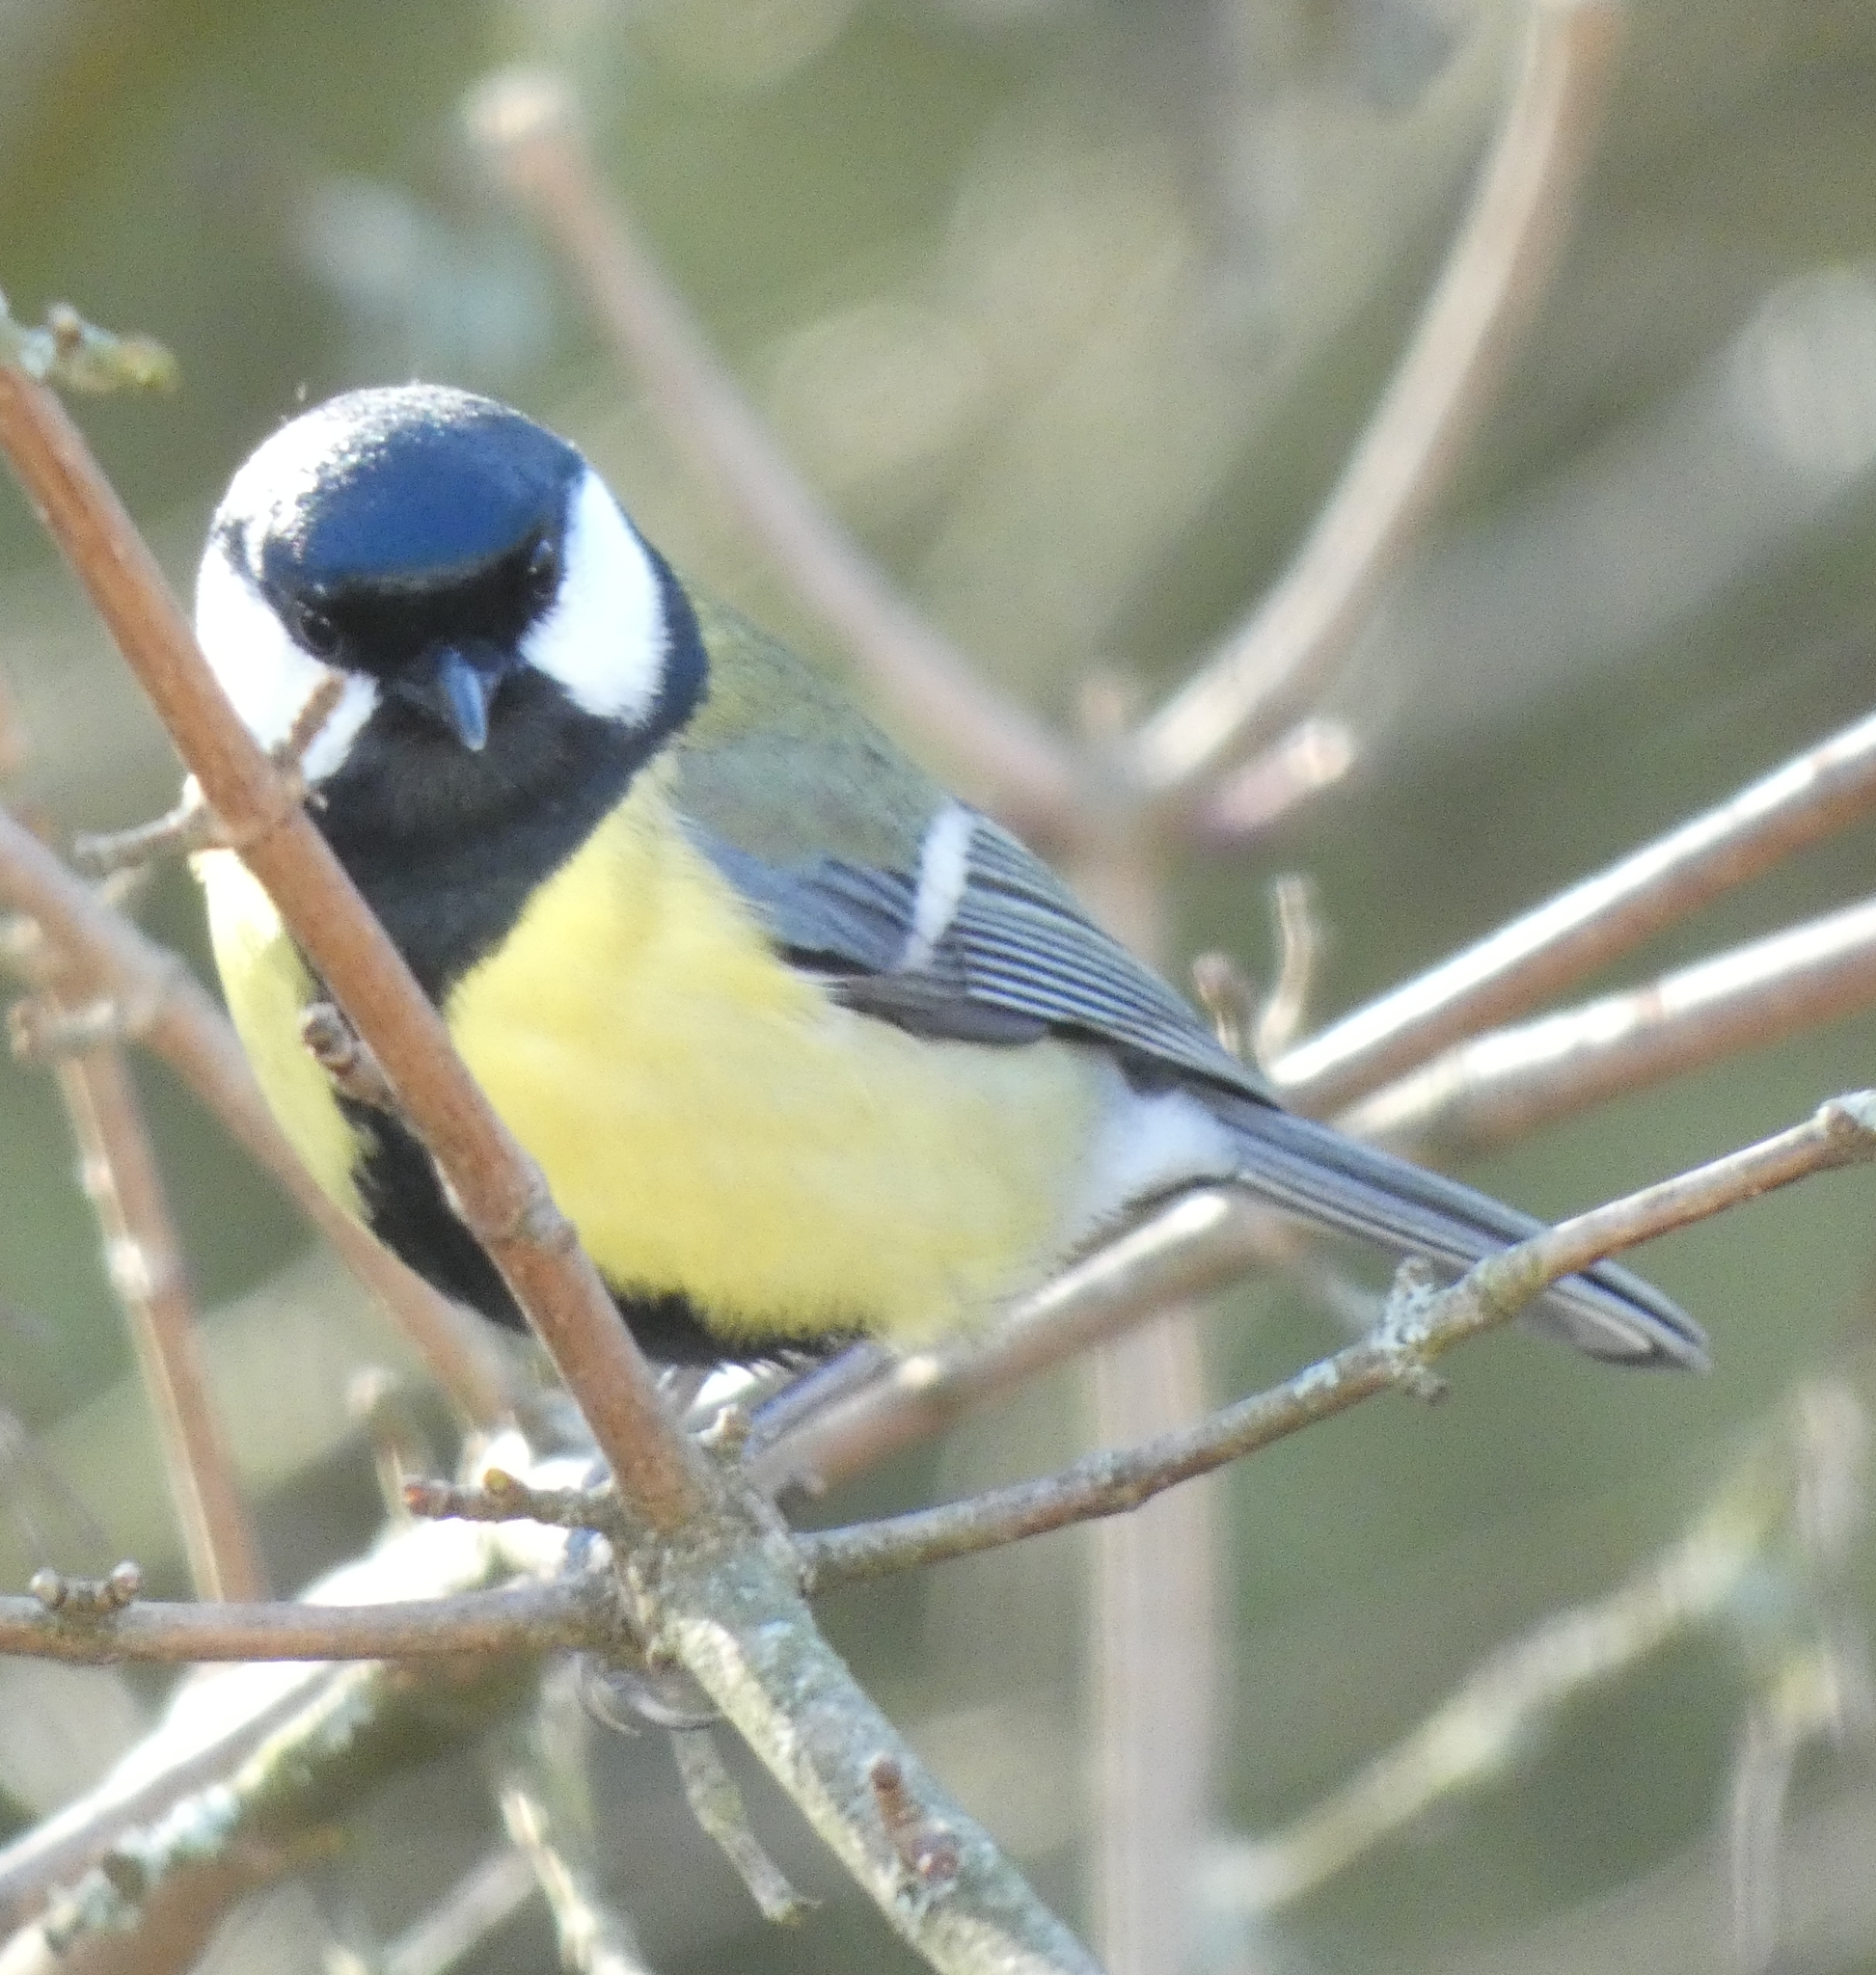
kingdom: Animalia
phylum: Chordata
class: Aves
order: Passeriformes
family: Paridae
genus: Parus
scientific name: Parus major
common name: Great tit
